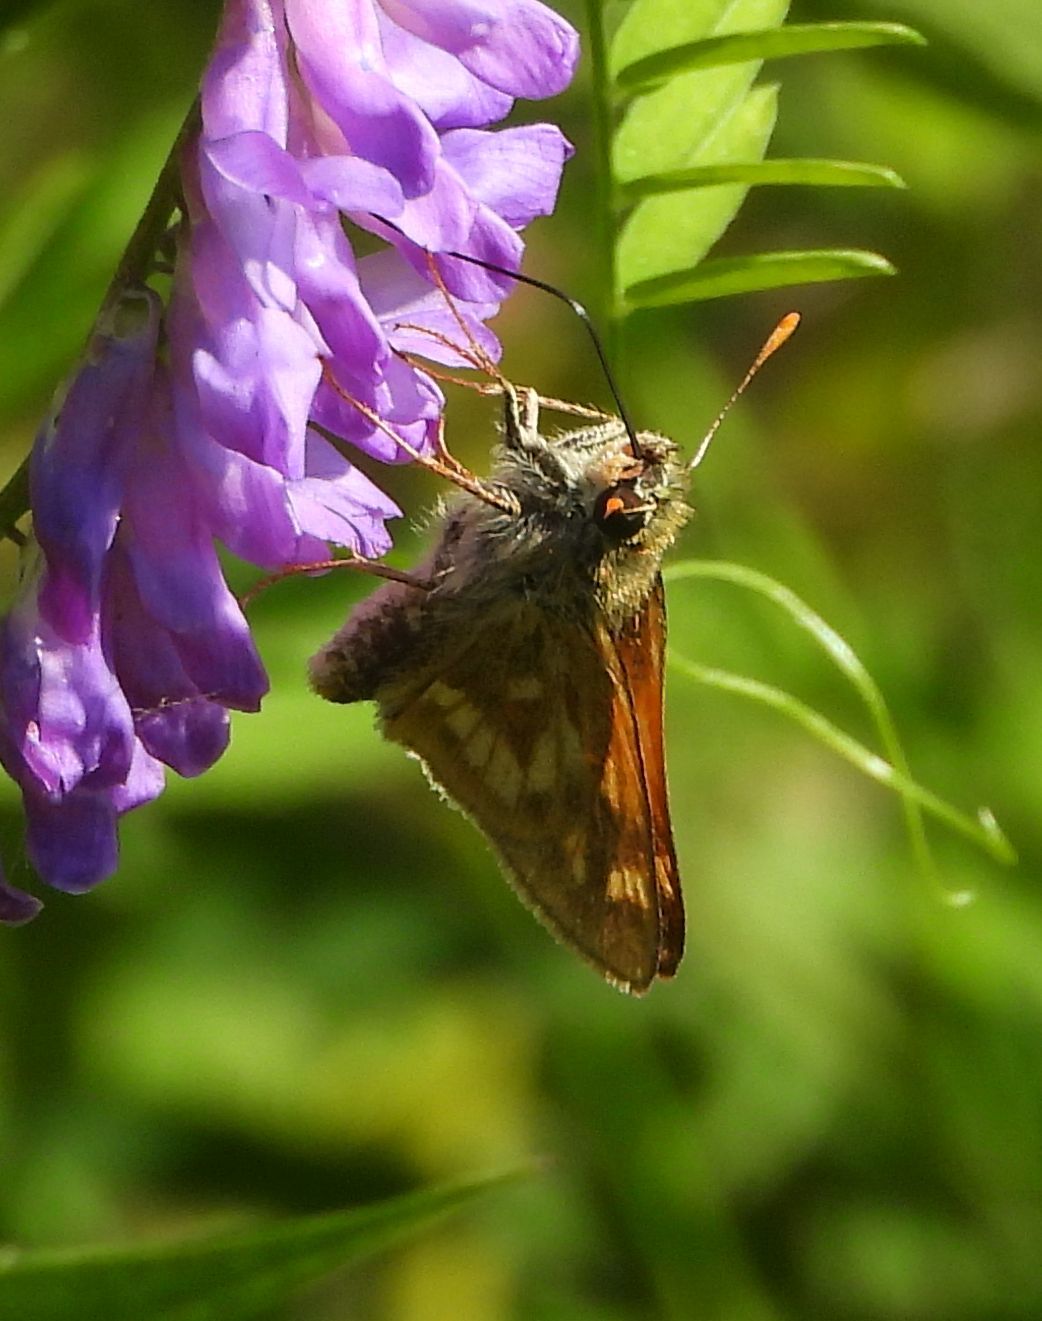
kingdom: Animalia
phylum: Arthropoda
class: Insecta
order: Lepidoptera
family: Hesperiidae
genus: Polites
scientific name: Polites mystic
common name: Long dash
